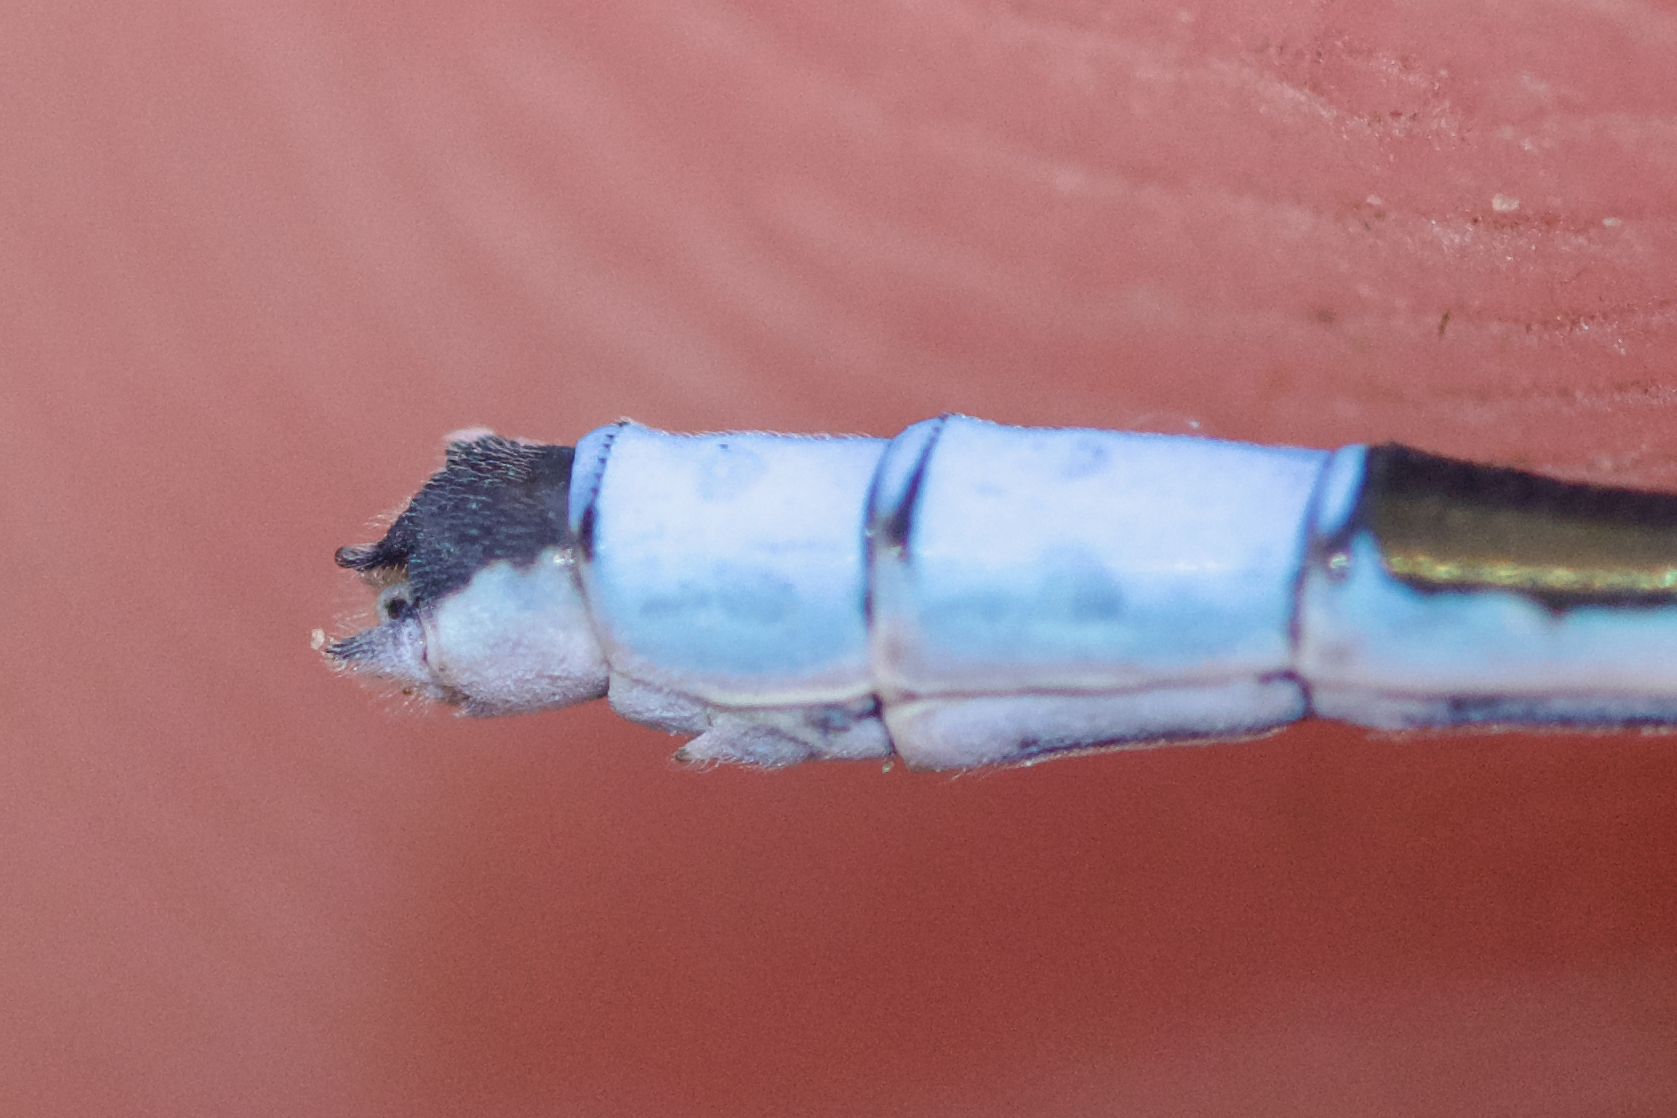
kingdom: Animalia
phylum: Arthropoda
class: Insecta
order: Odonata
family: Coenagrionidae
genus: Enallagma
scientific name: Enallagma hageni
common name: Hagen's bluet
